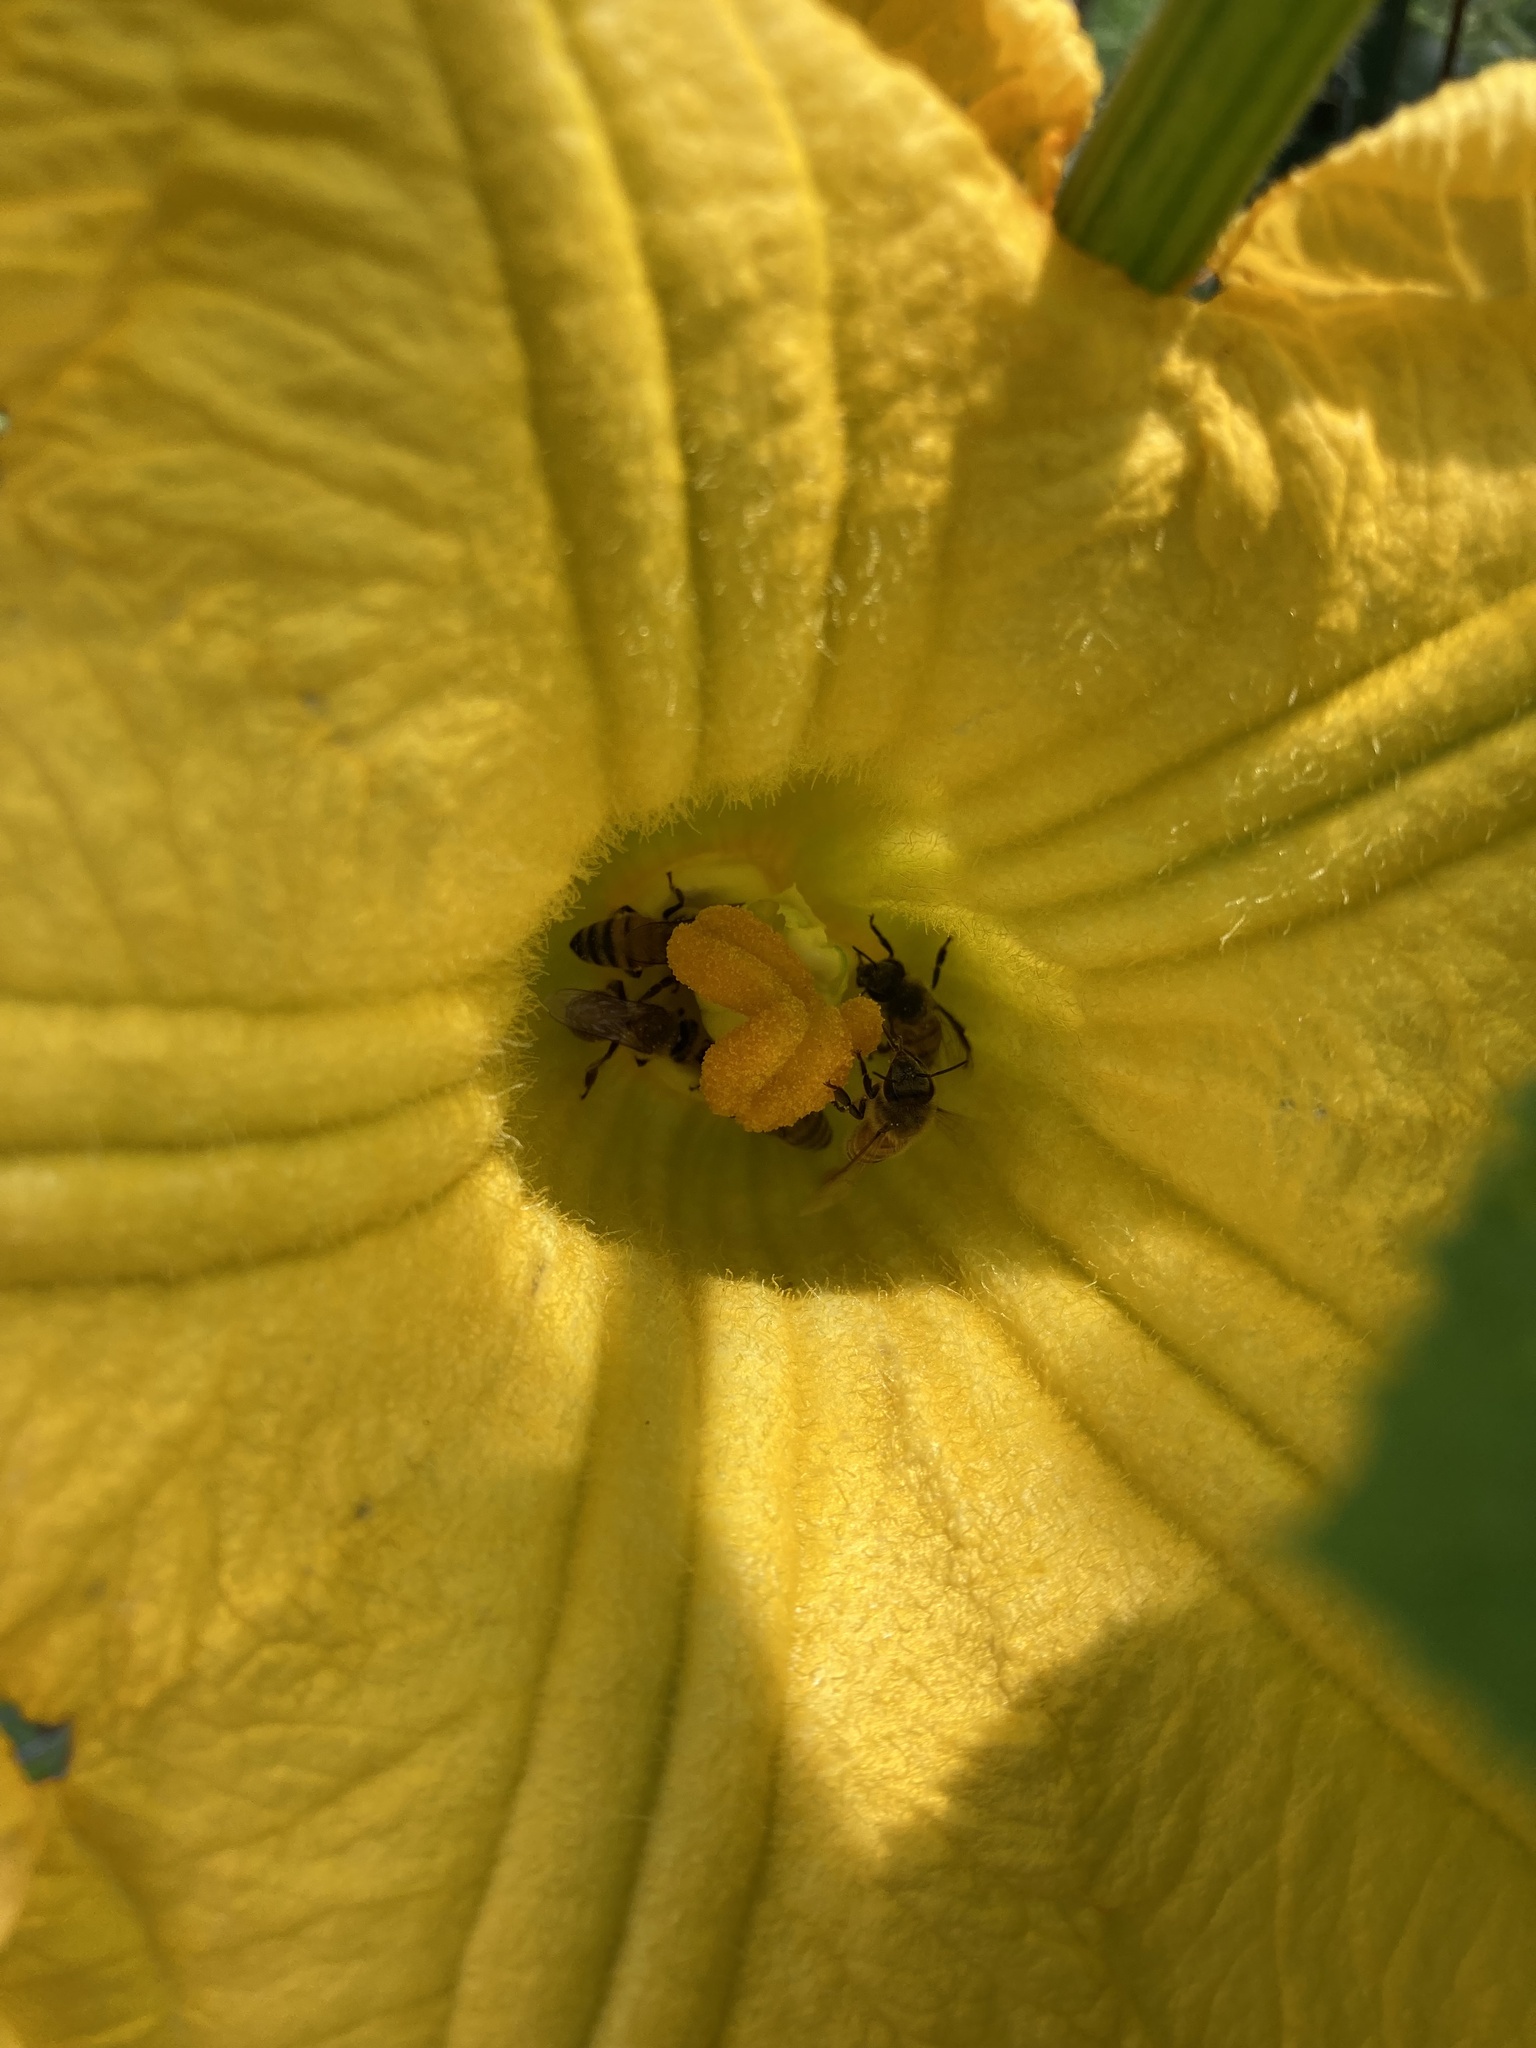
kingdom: Animalia
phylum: Arthropoda
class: Insecta
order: Hymenoptera
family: Apidae
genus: Apis
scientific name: Apis mellifera
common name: Honey bee
